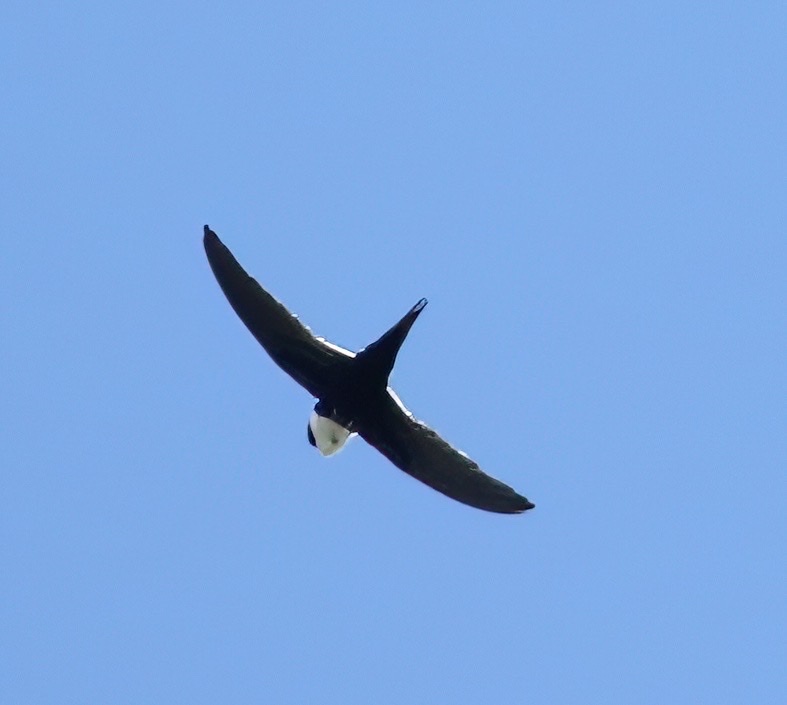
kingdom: Animalia
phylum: Chordata
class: Aves
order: Apodiformes
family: Apodidae
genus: Panyptila
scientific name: Panyptila cayennensis
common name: Lesser swallow-tailed swift
